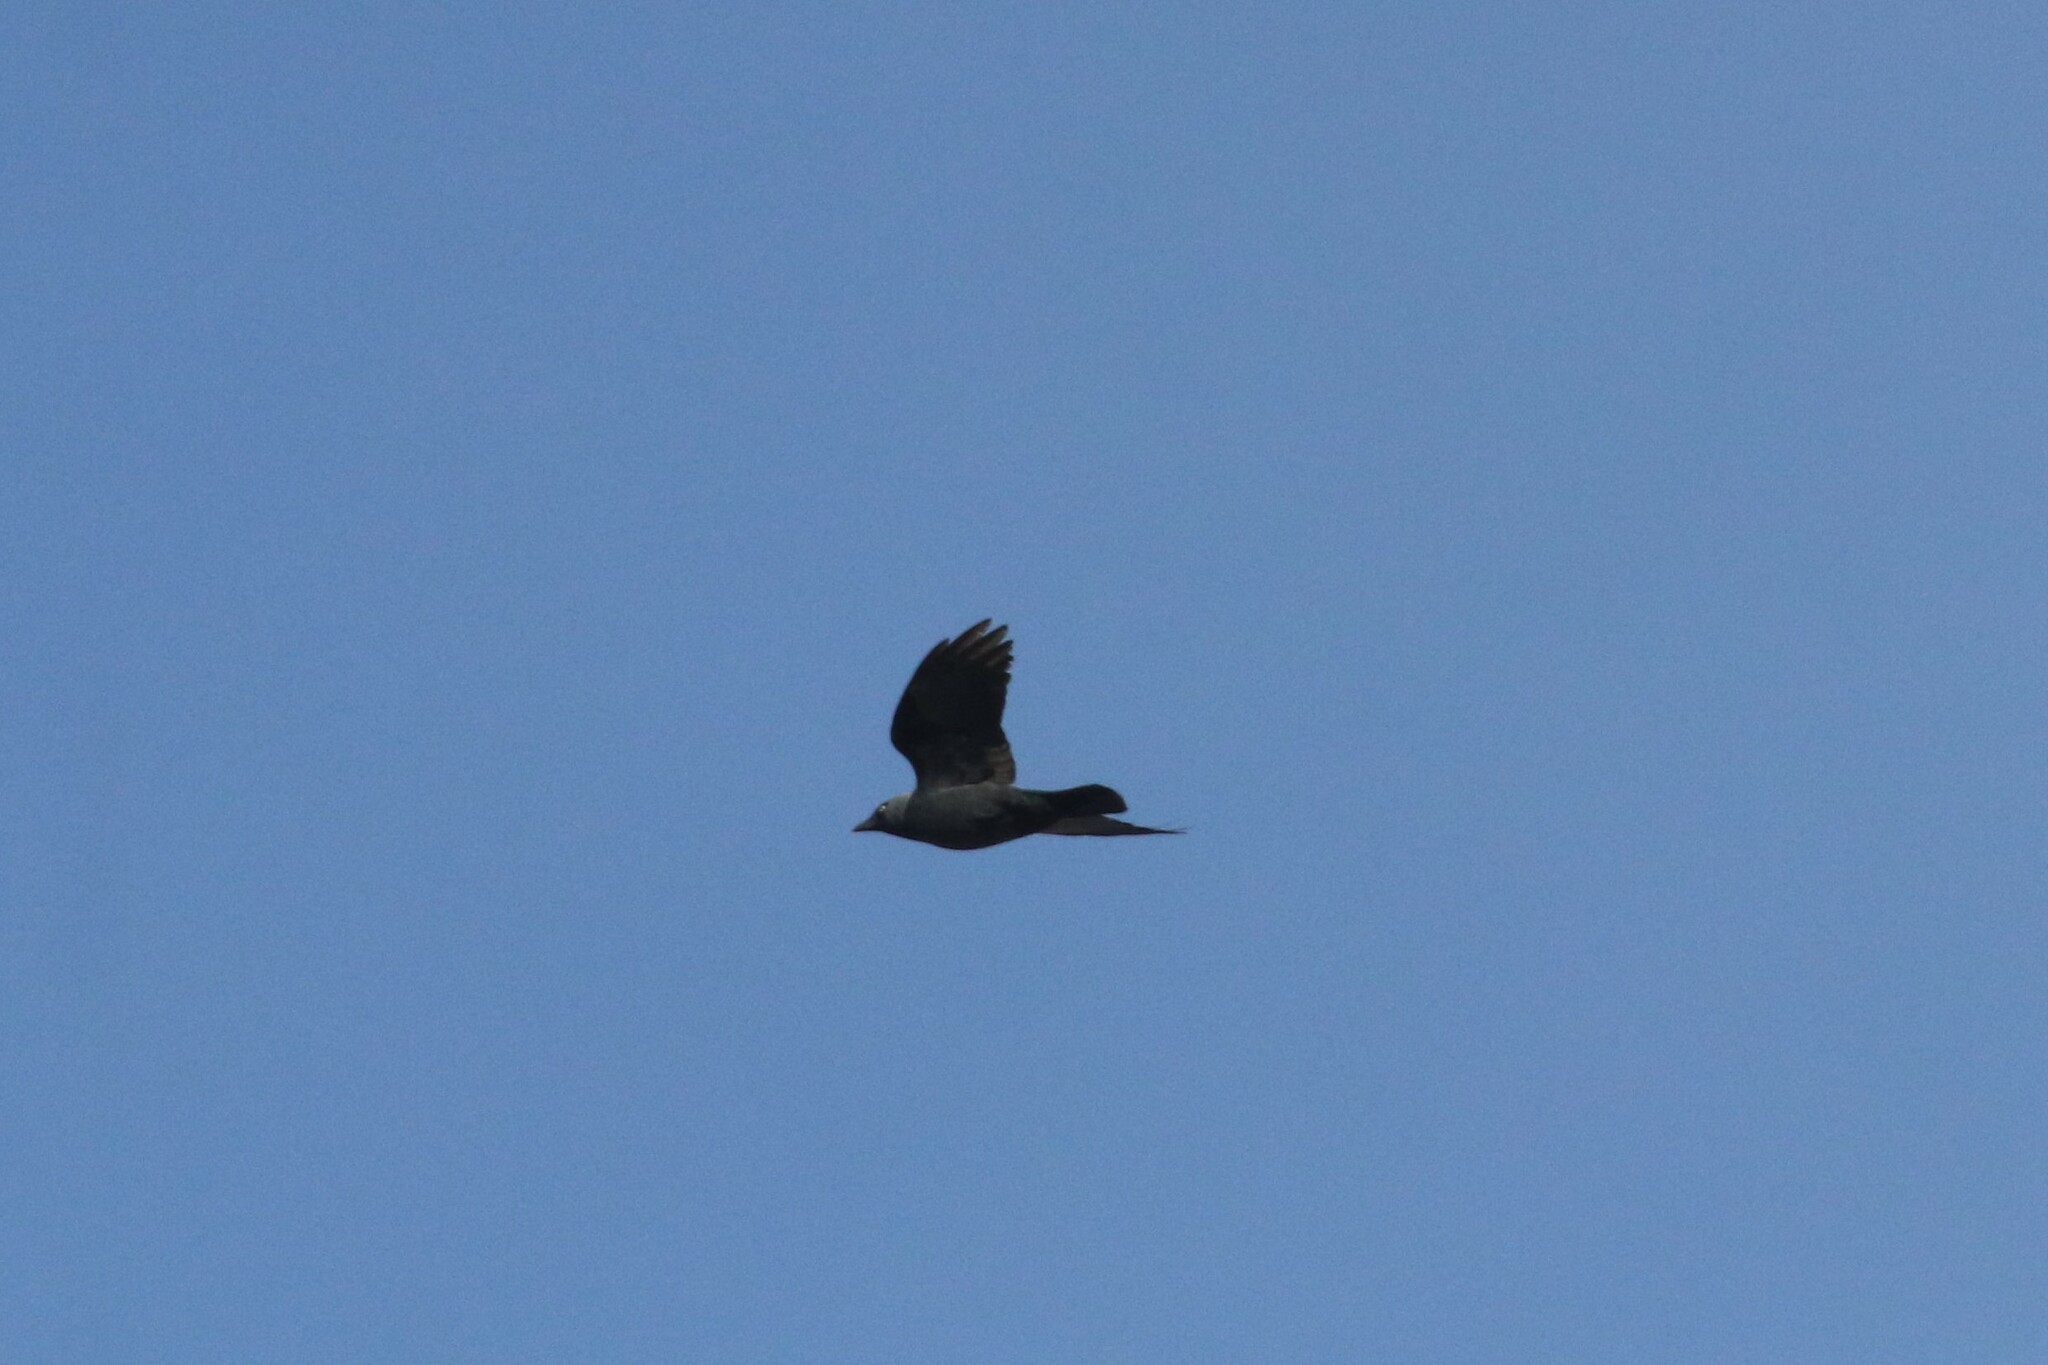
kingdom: Animalia
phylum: Chordata
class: Aves
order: Passeriformes
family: Corvidae
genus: Coloeus
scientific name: Coloeus monedula
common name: Western jackdaw
